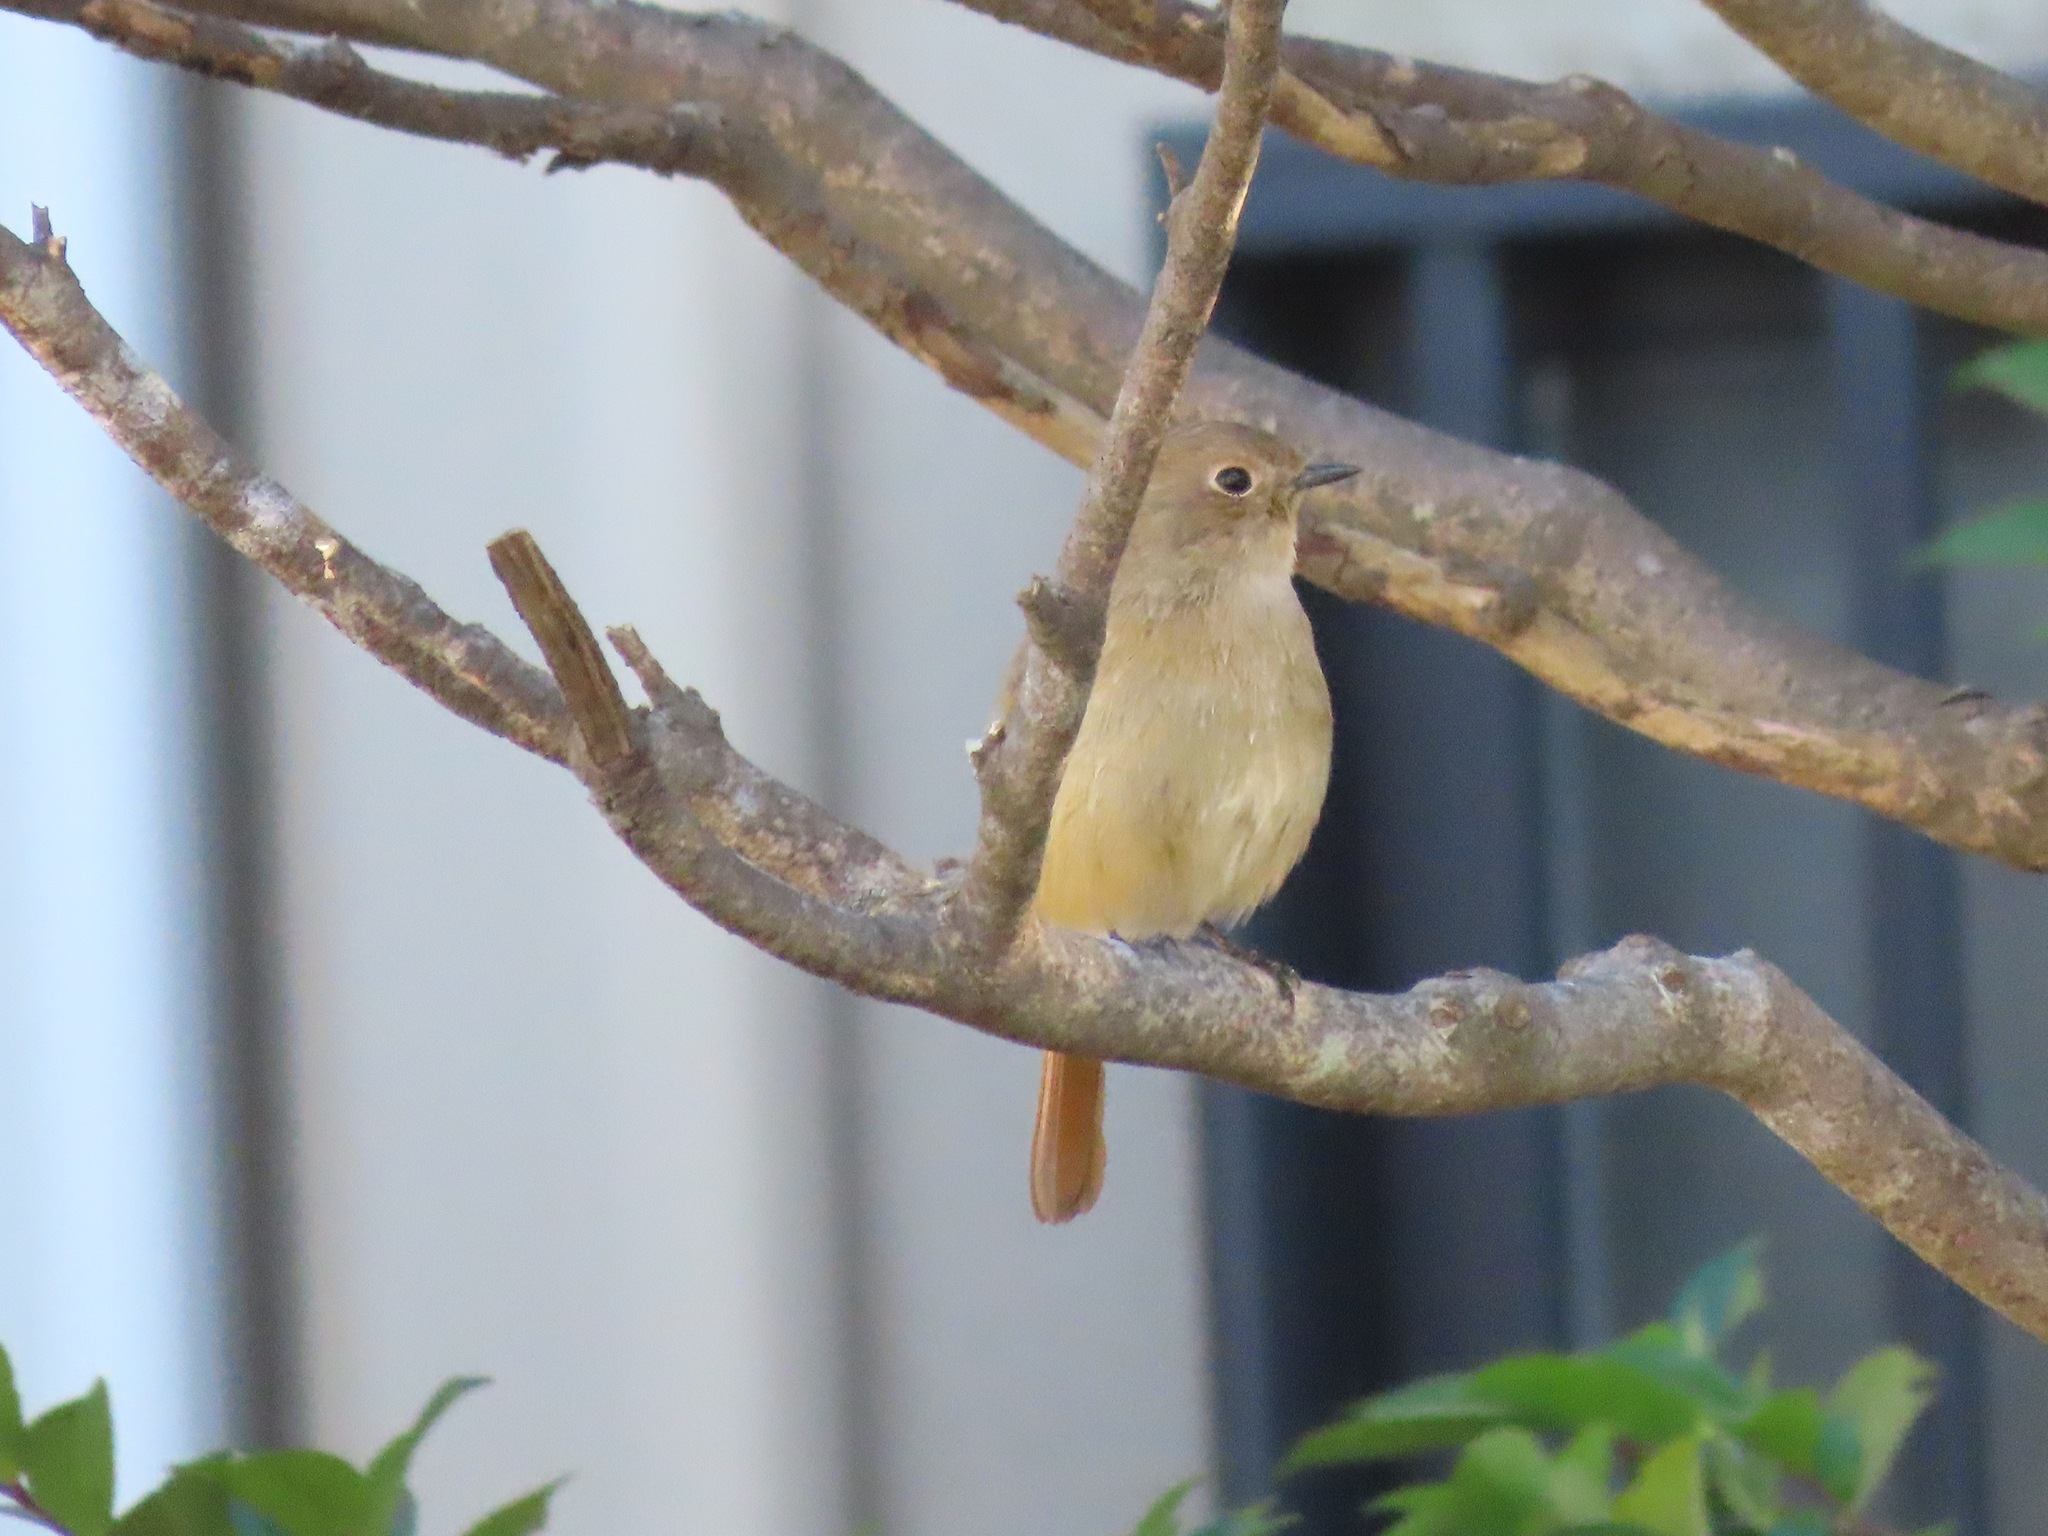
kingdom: Animalia
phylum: Chordata
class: Aves
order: Passeriformes
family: Muscicapidae
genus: Phoenicurus
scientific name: Phoenicurus auroreus
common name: Daurian redstart
